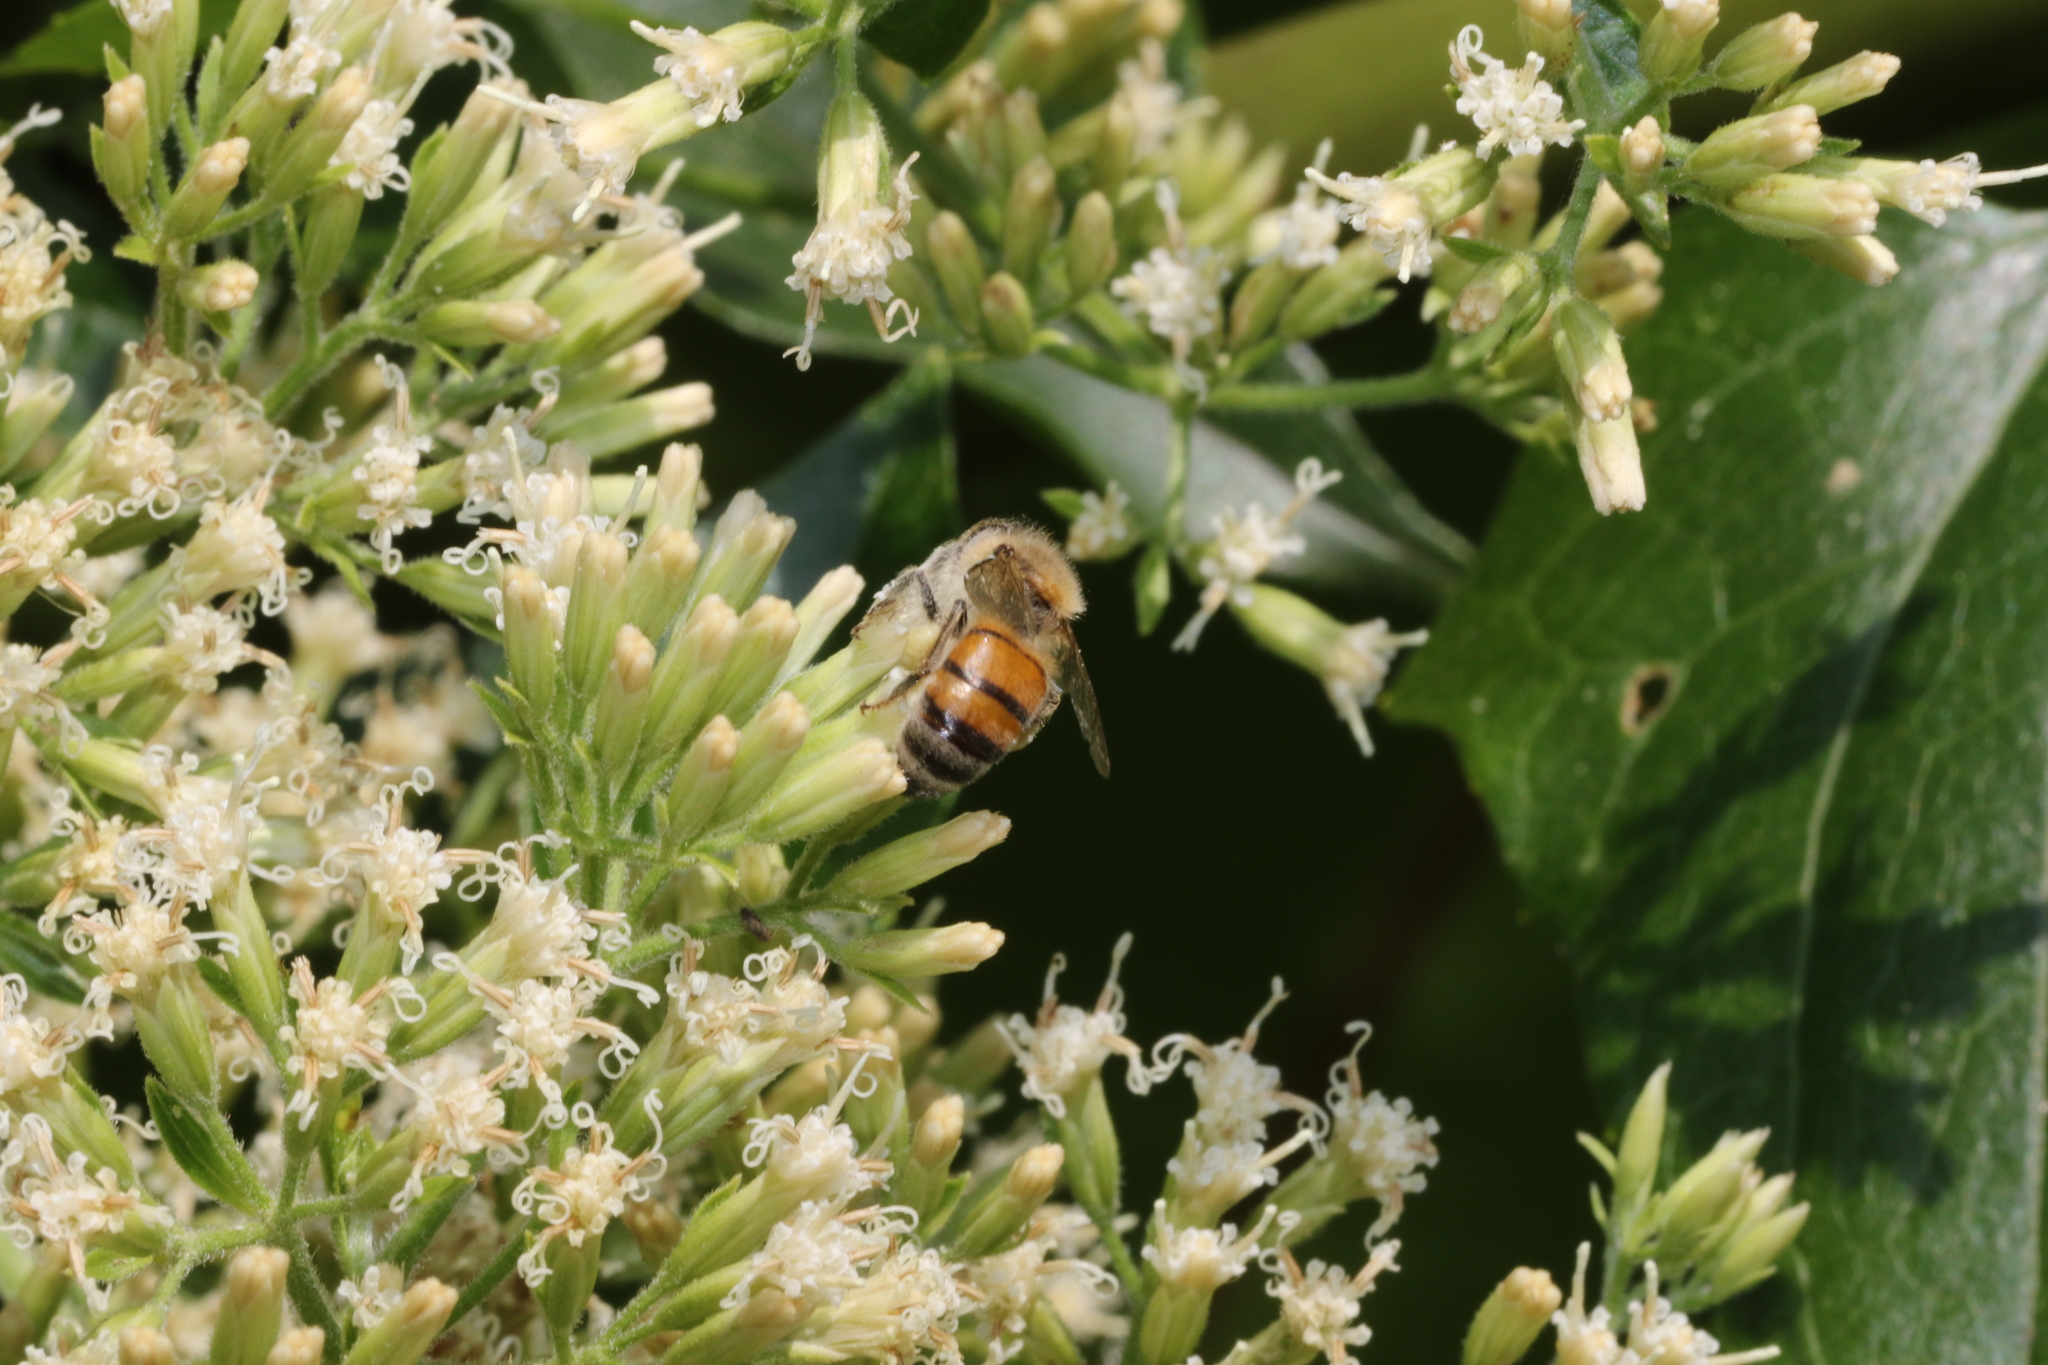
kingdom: Animalia
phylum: Arthropoda
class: Insecta
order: Hymenoptera
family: Apidae
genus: Apis
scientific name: Apis mellifera
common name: Honey bee
